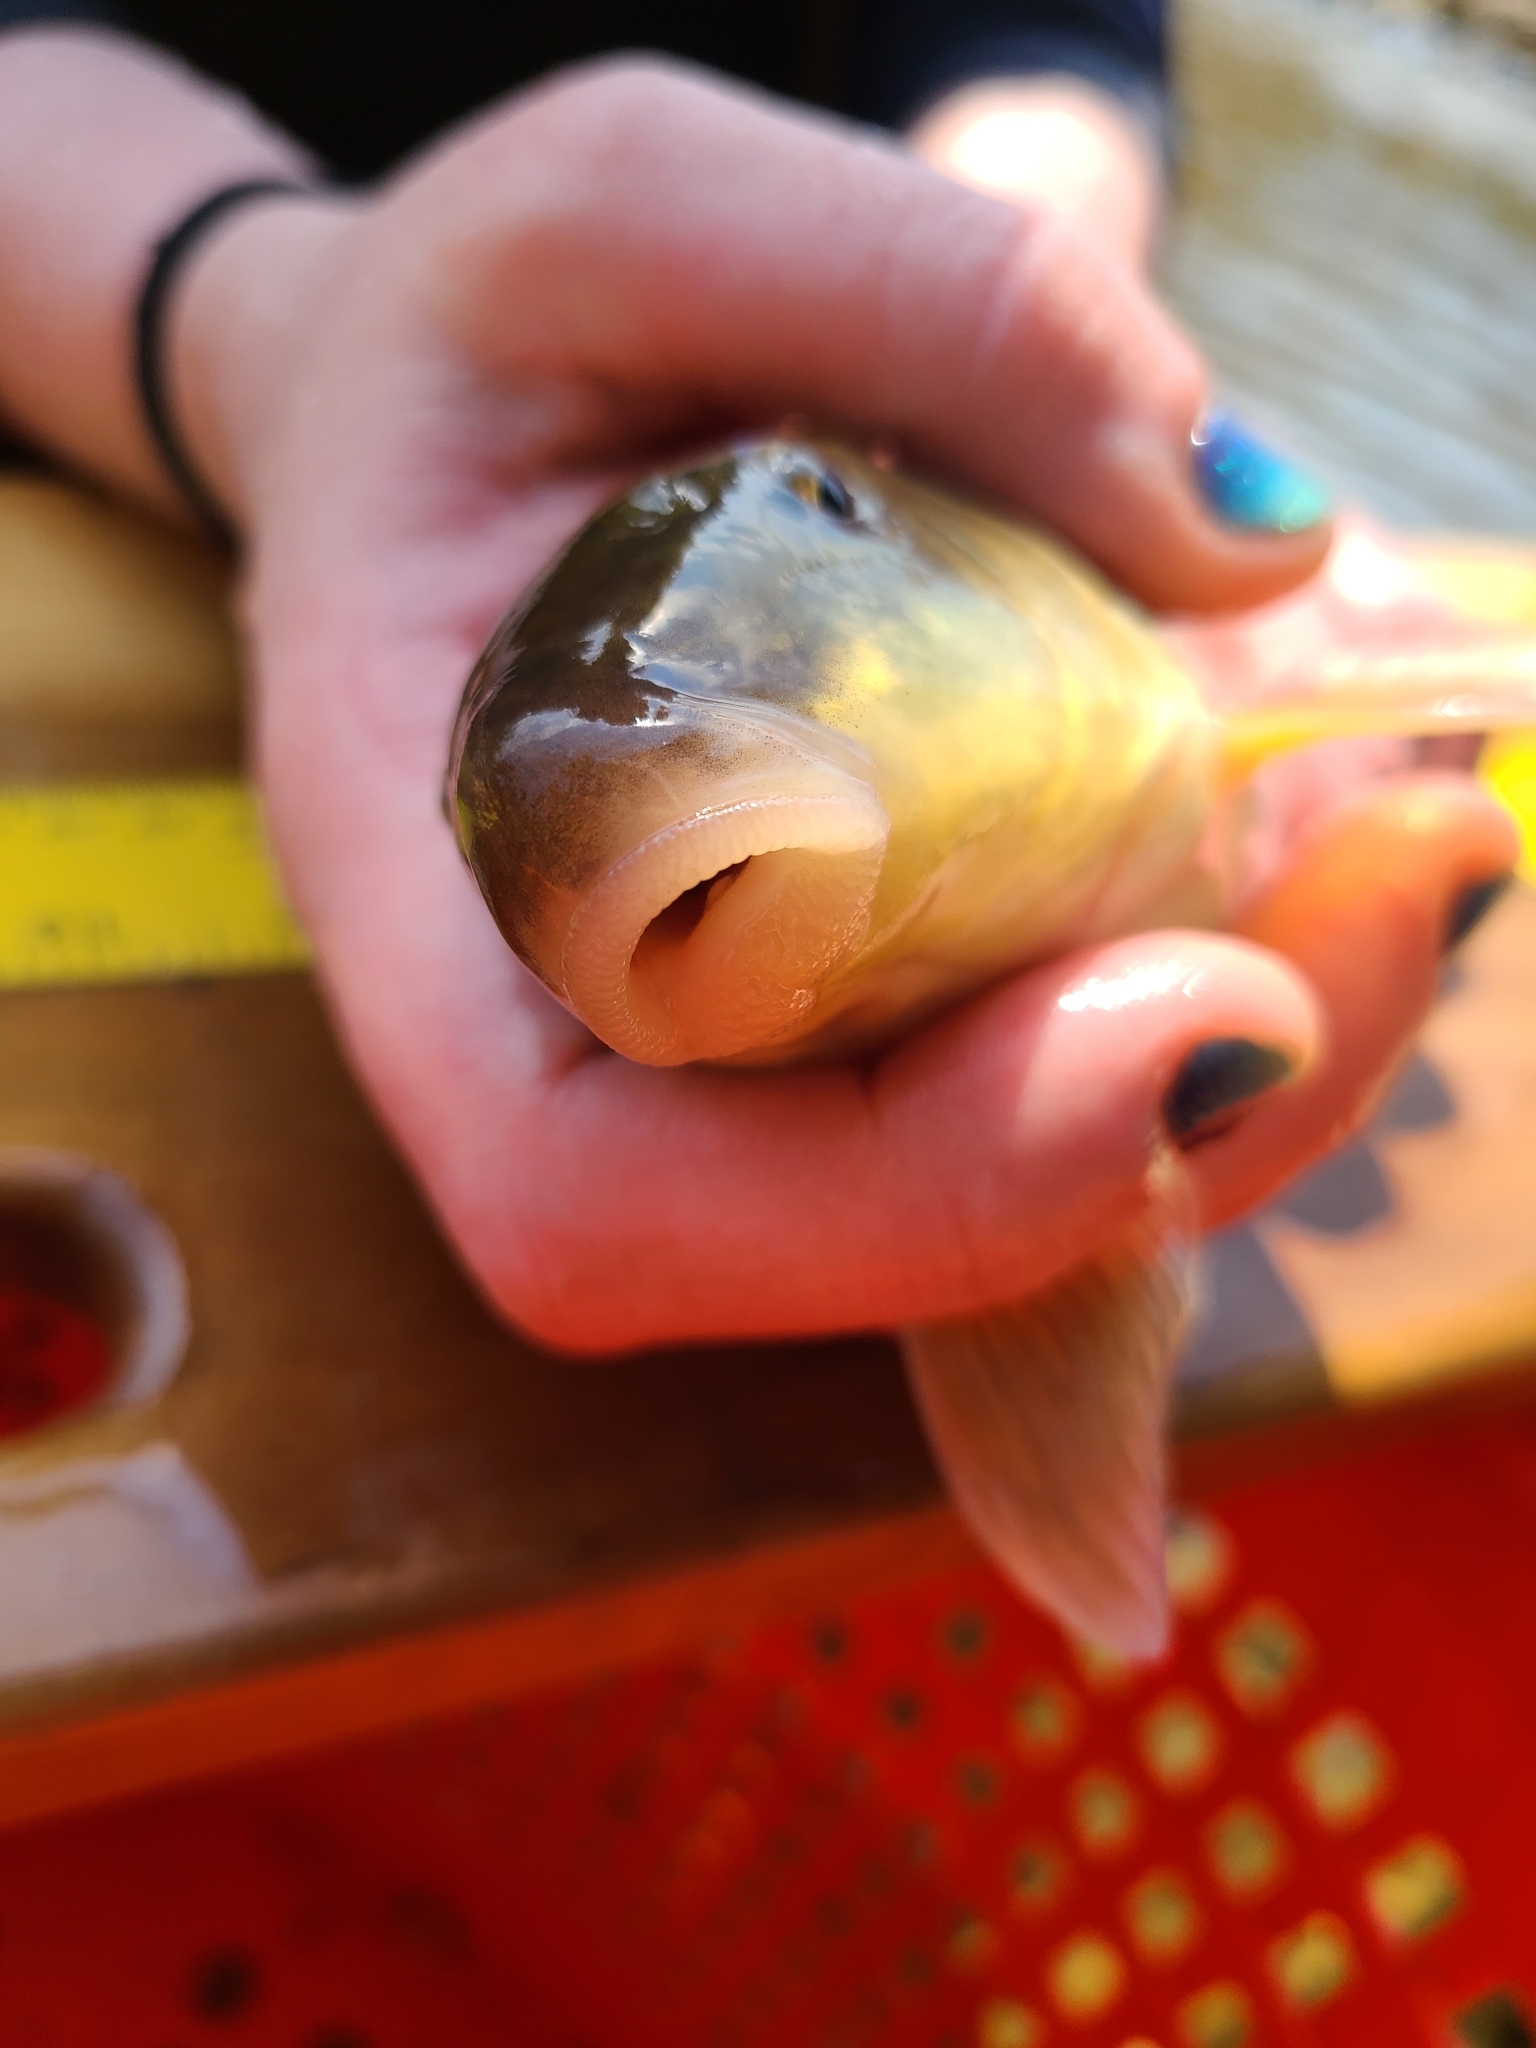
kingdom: Animalia
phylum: Chordata
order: Cypriniformes
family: Catostomidae
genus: Catostomus
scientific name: Catostomus commersonii
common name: White sucker
